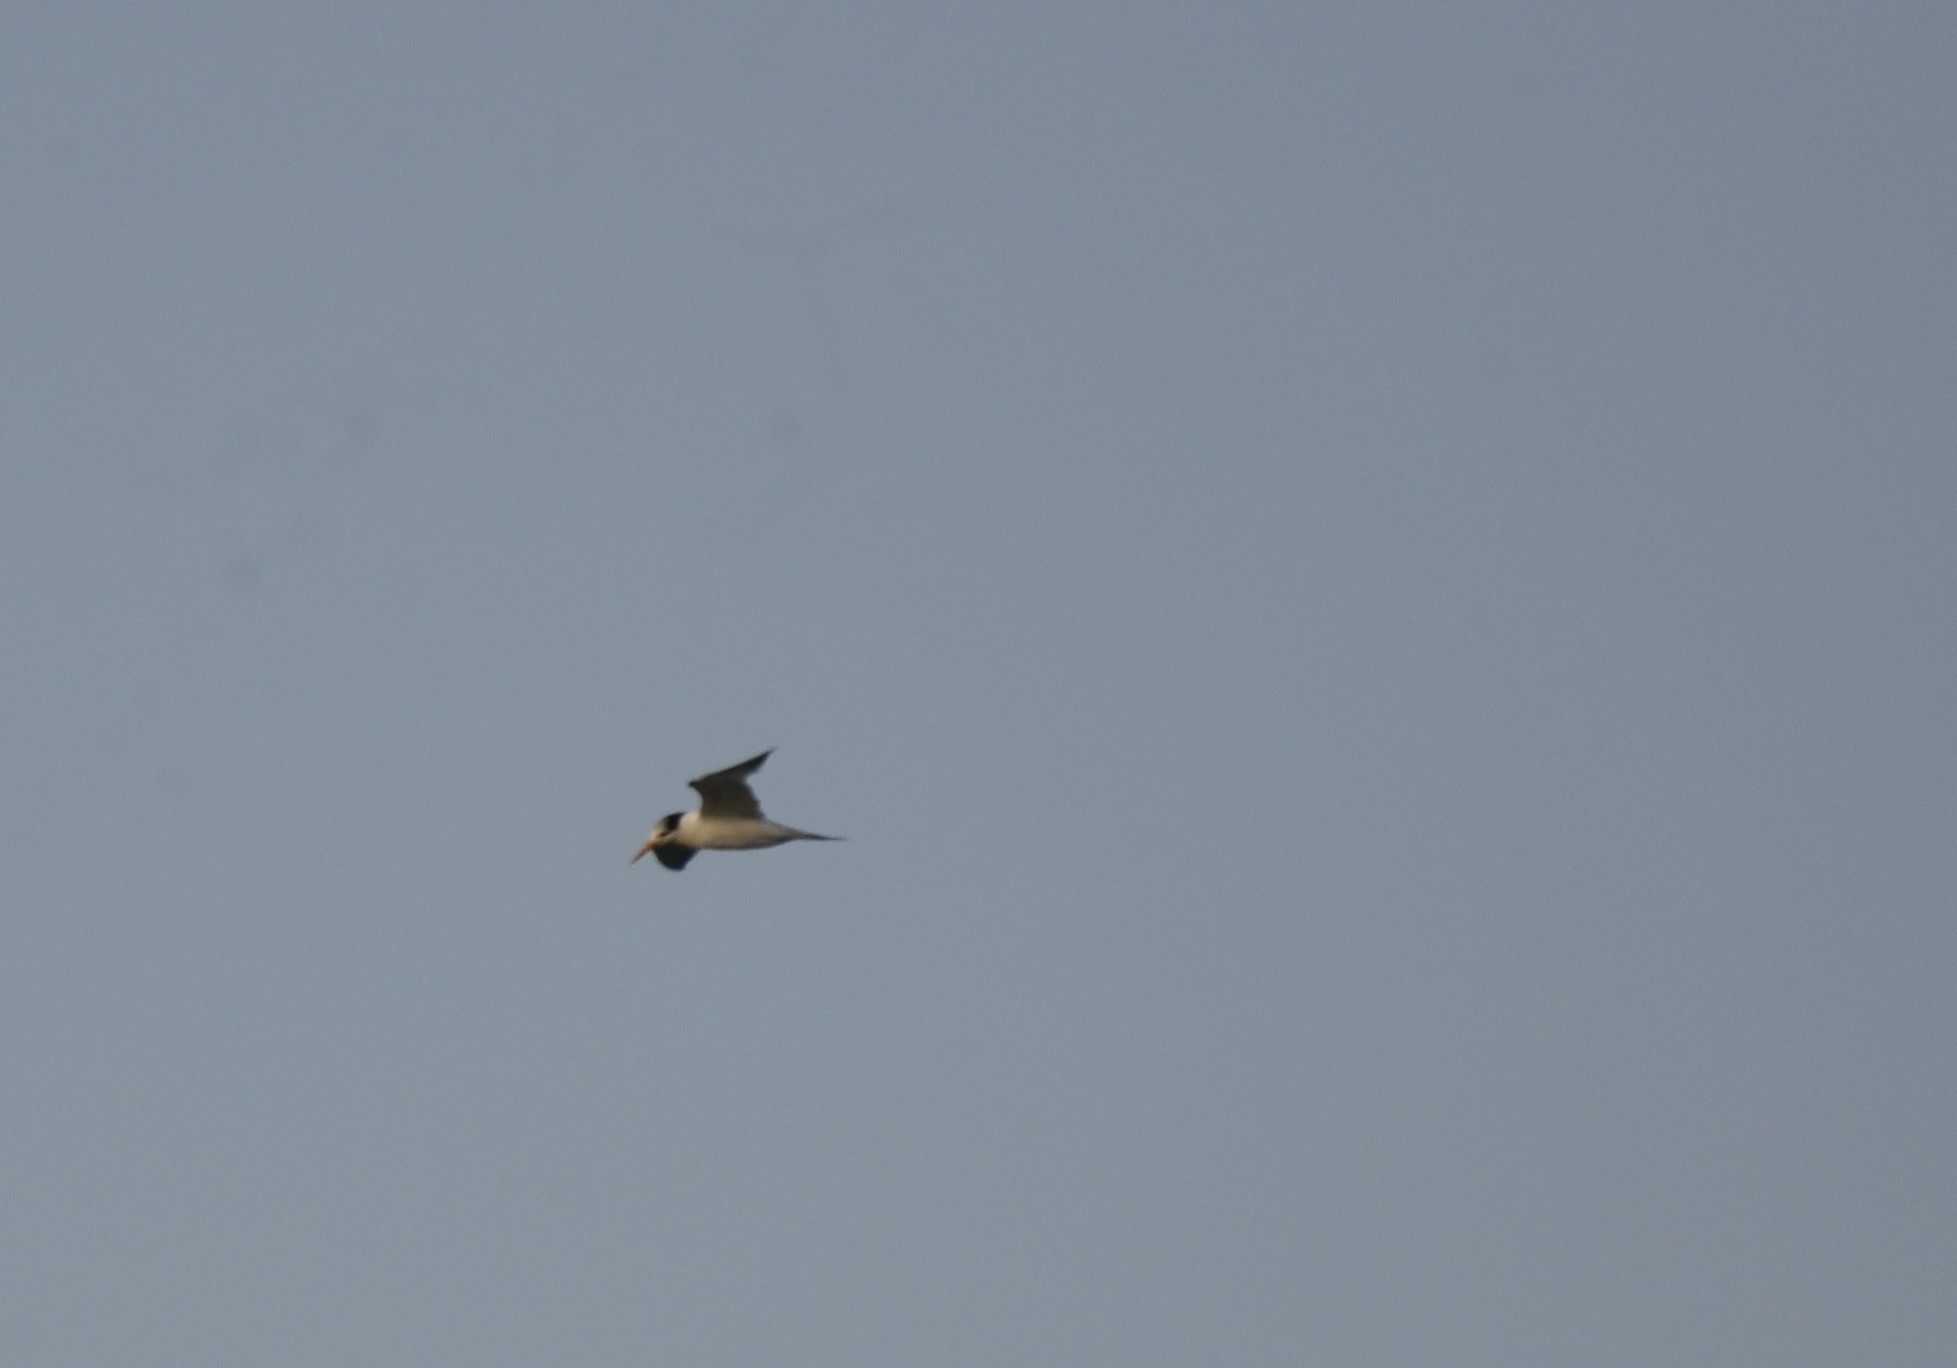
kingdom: Animalia
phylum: Chordata
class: Aves
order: Charadriiformes
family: Laridae
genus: Thalasseus
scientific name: Thalasseus bergii
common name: Greater crested tern
